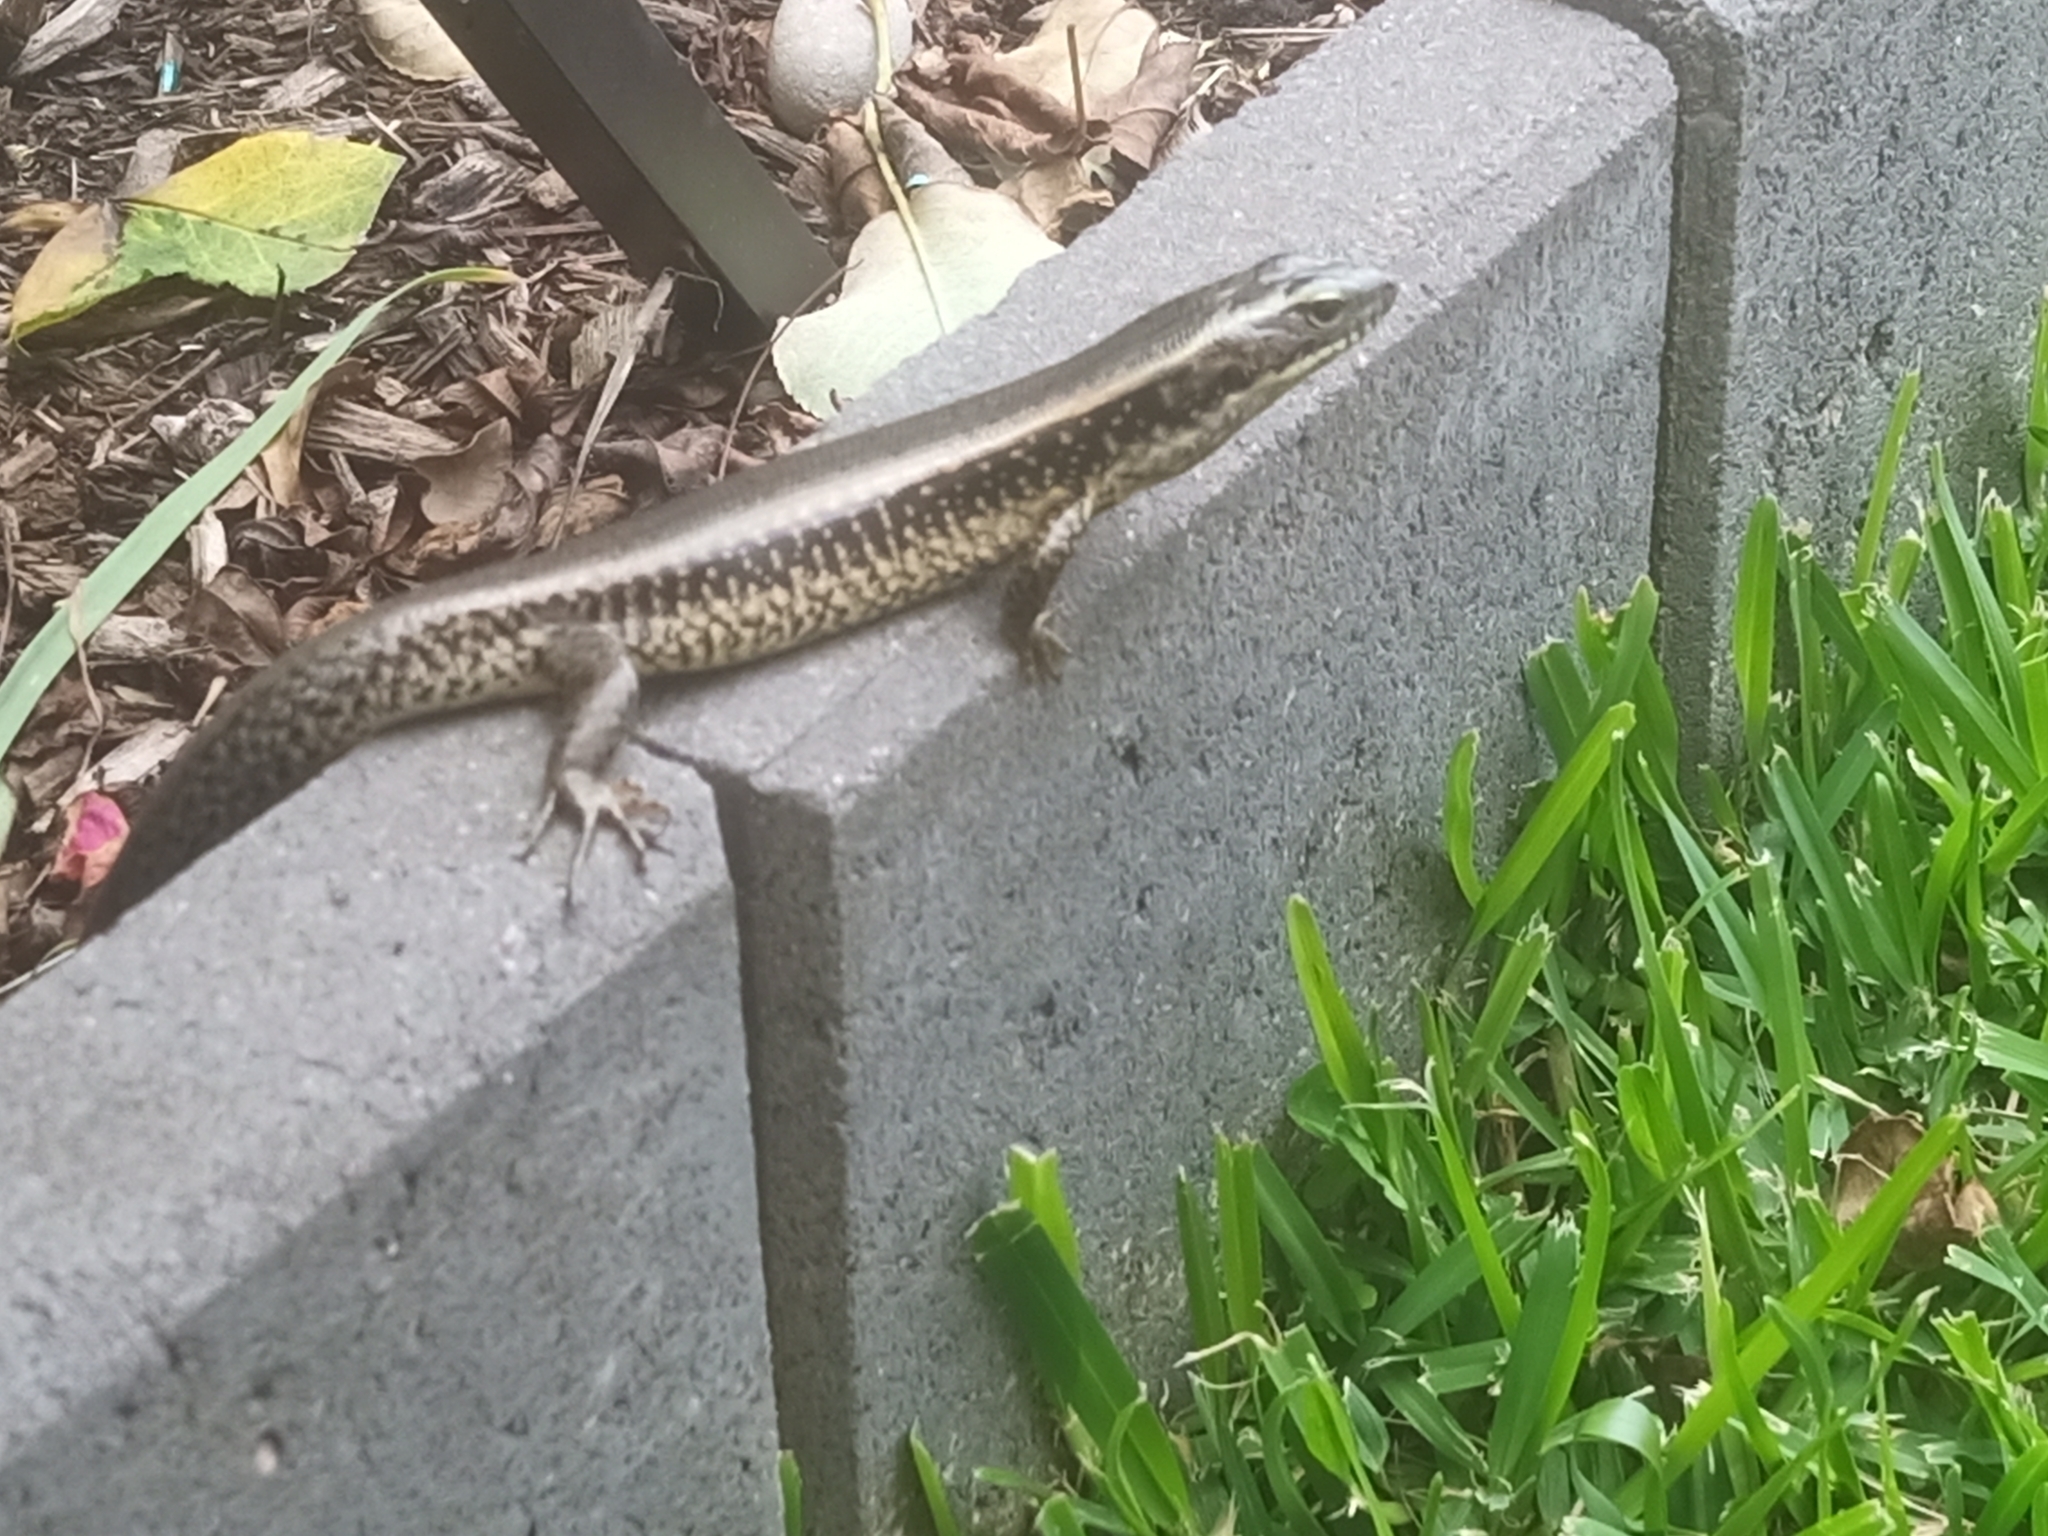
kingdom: Animalia
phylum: Chordata
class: Squamata
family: Scincidae
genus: Eulamprus
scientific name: Eulamprus quoyii
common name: Eastern water skink
